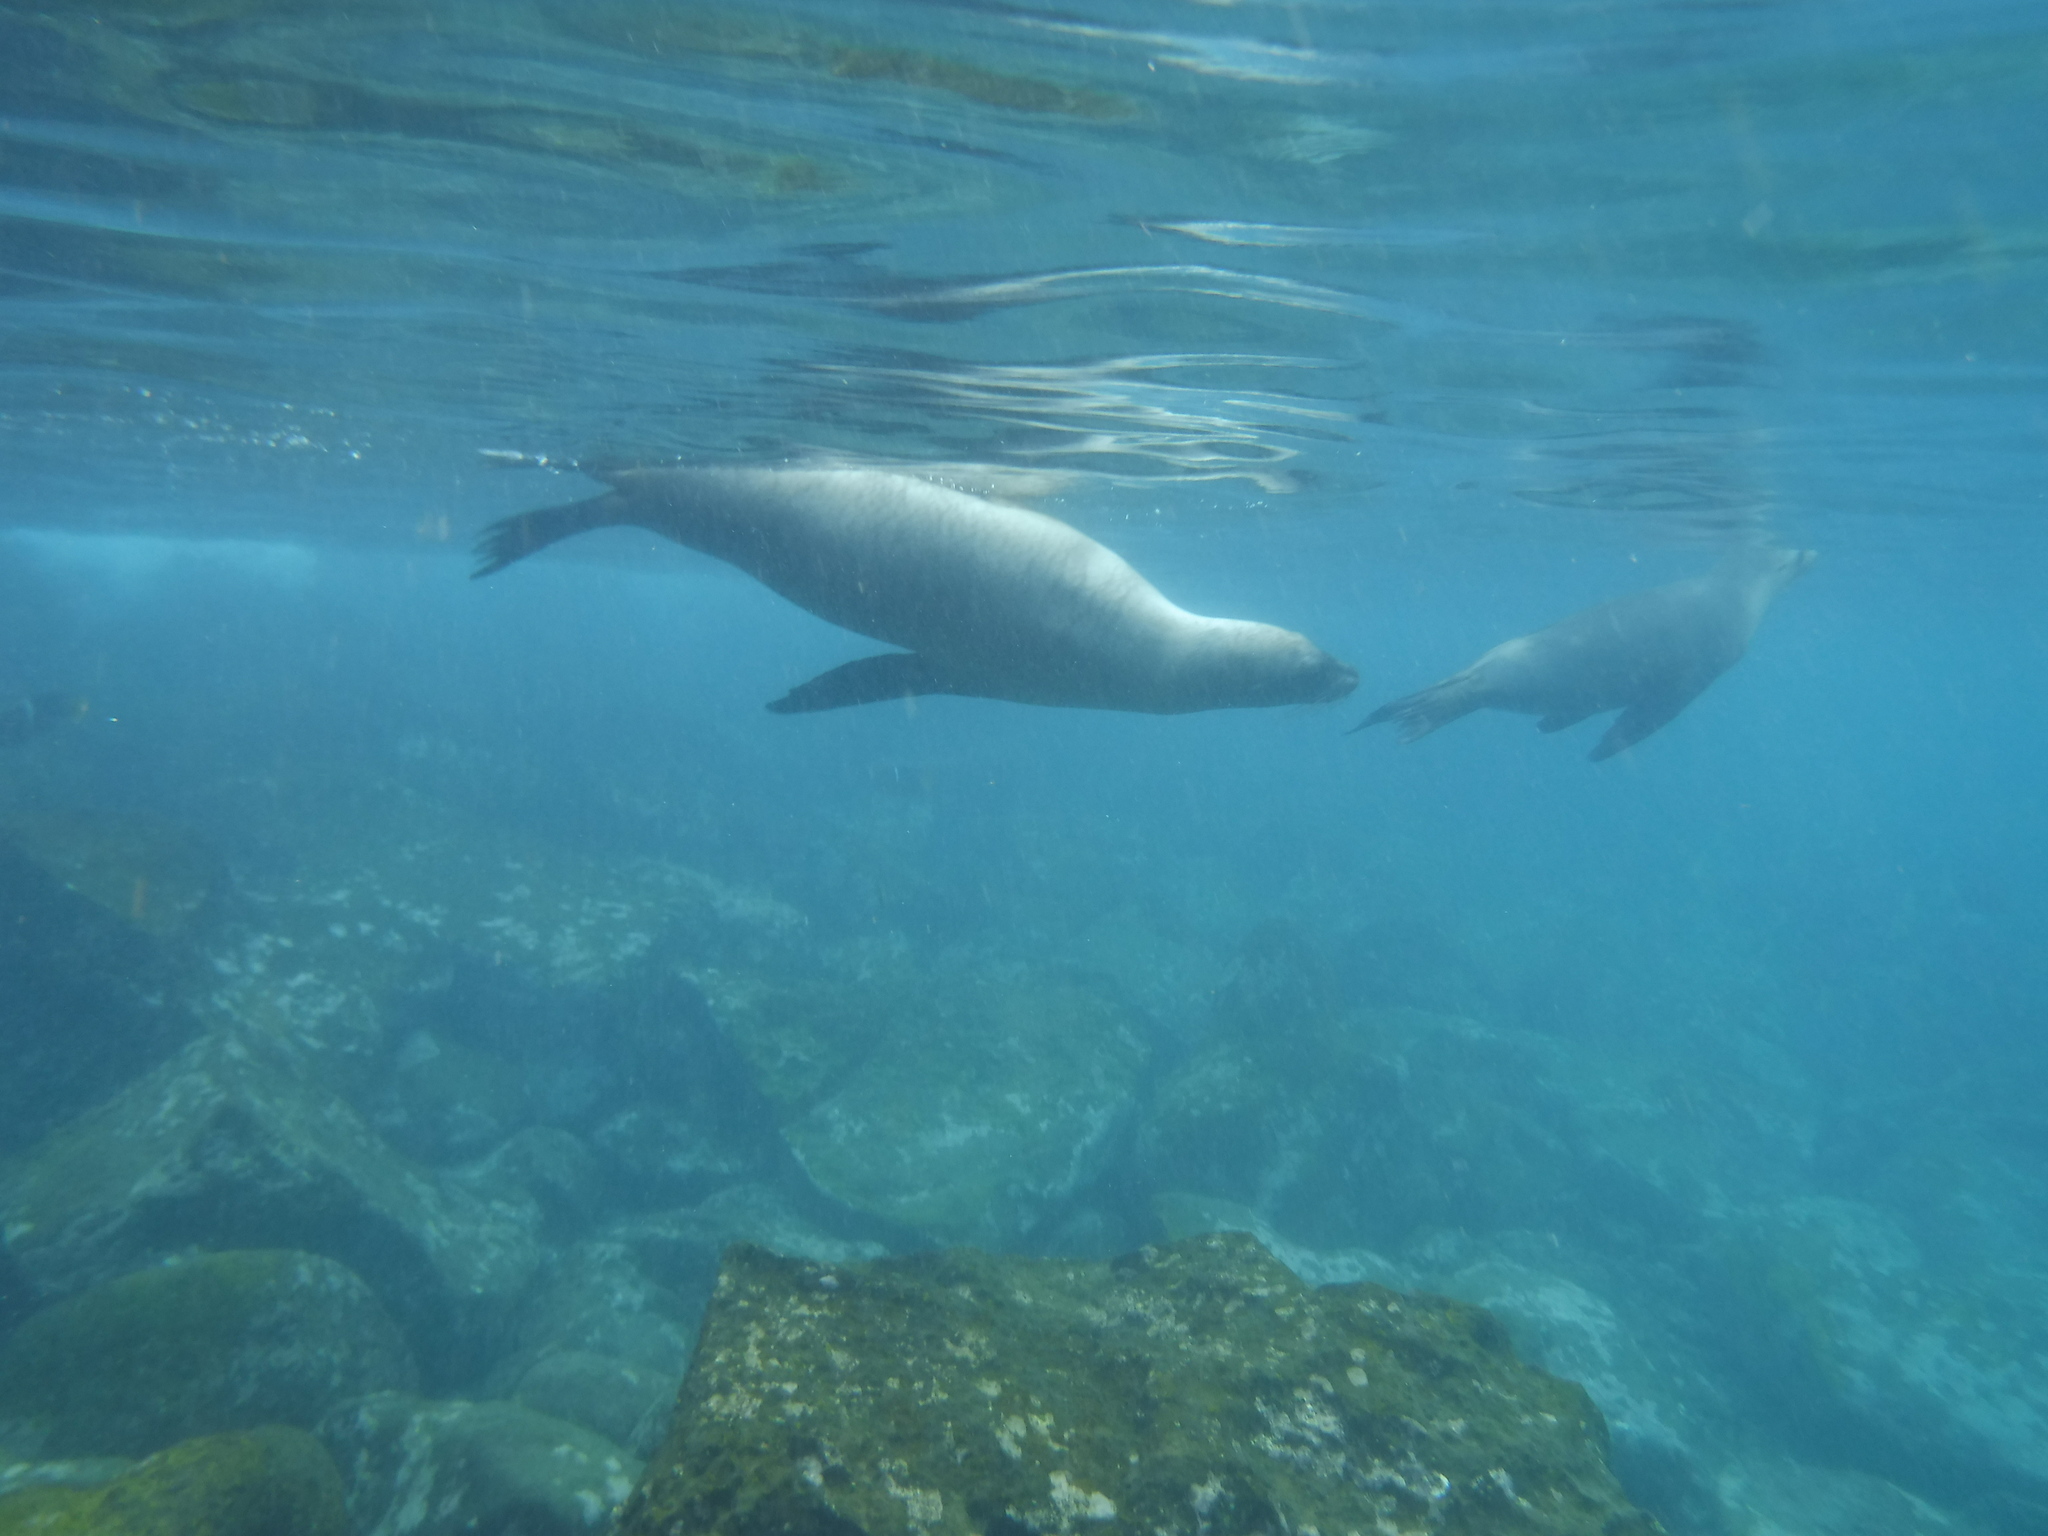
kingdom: Animalia
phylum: Chordata
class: Mammalia
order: Carnivora
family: Otariidae
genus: Zalophus
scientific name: Zalophus wollebaeki
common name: Galapagos sea lion
